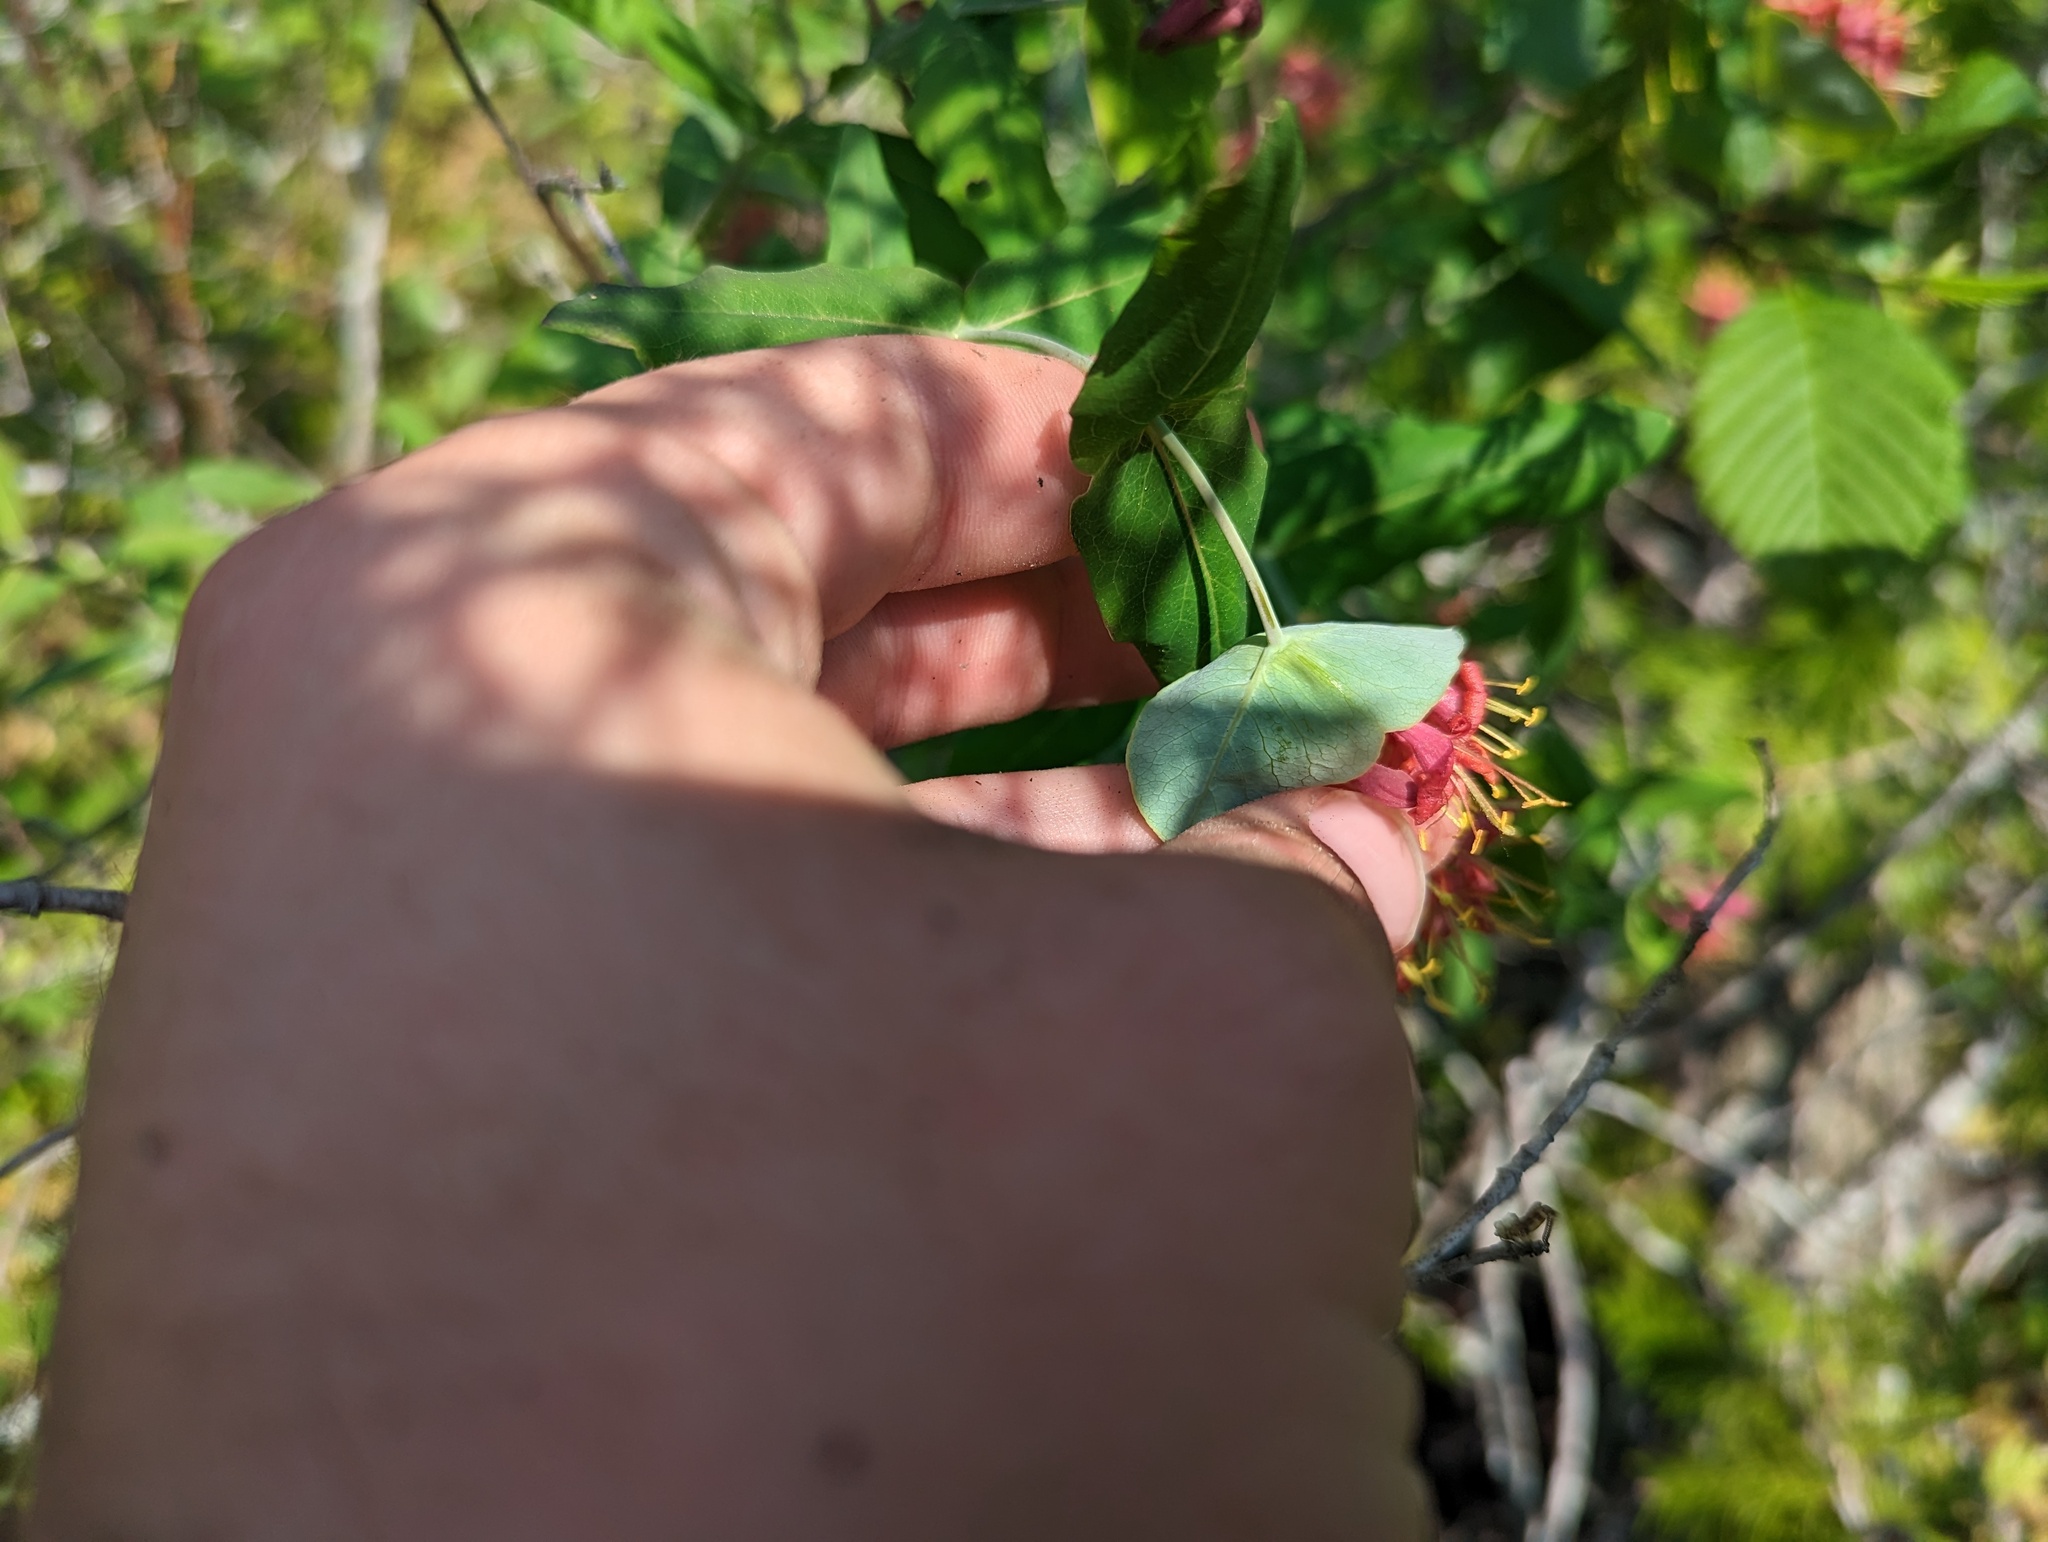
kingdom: Plantae
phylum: Tracheophyta
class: Magnoliopsida
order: Dipsacales
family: Caprifoliaceae
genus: Lonicera
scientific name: Lonicera dioica
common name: Limber honeysuckle
